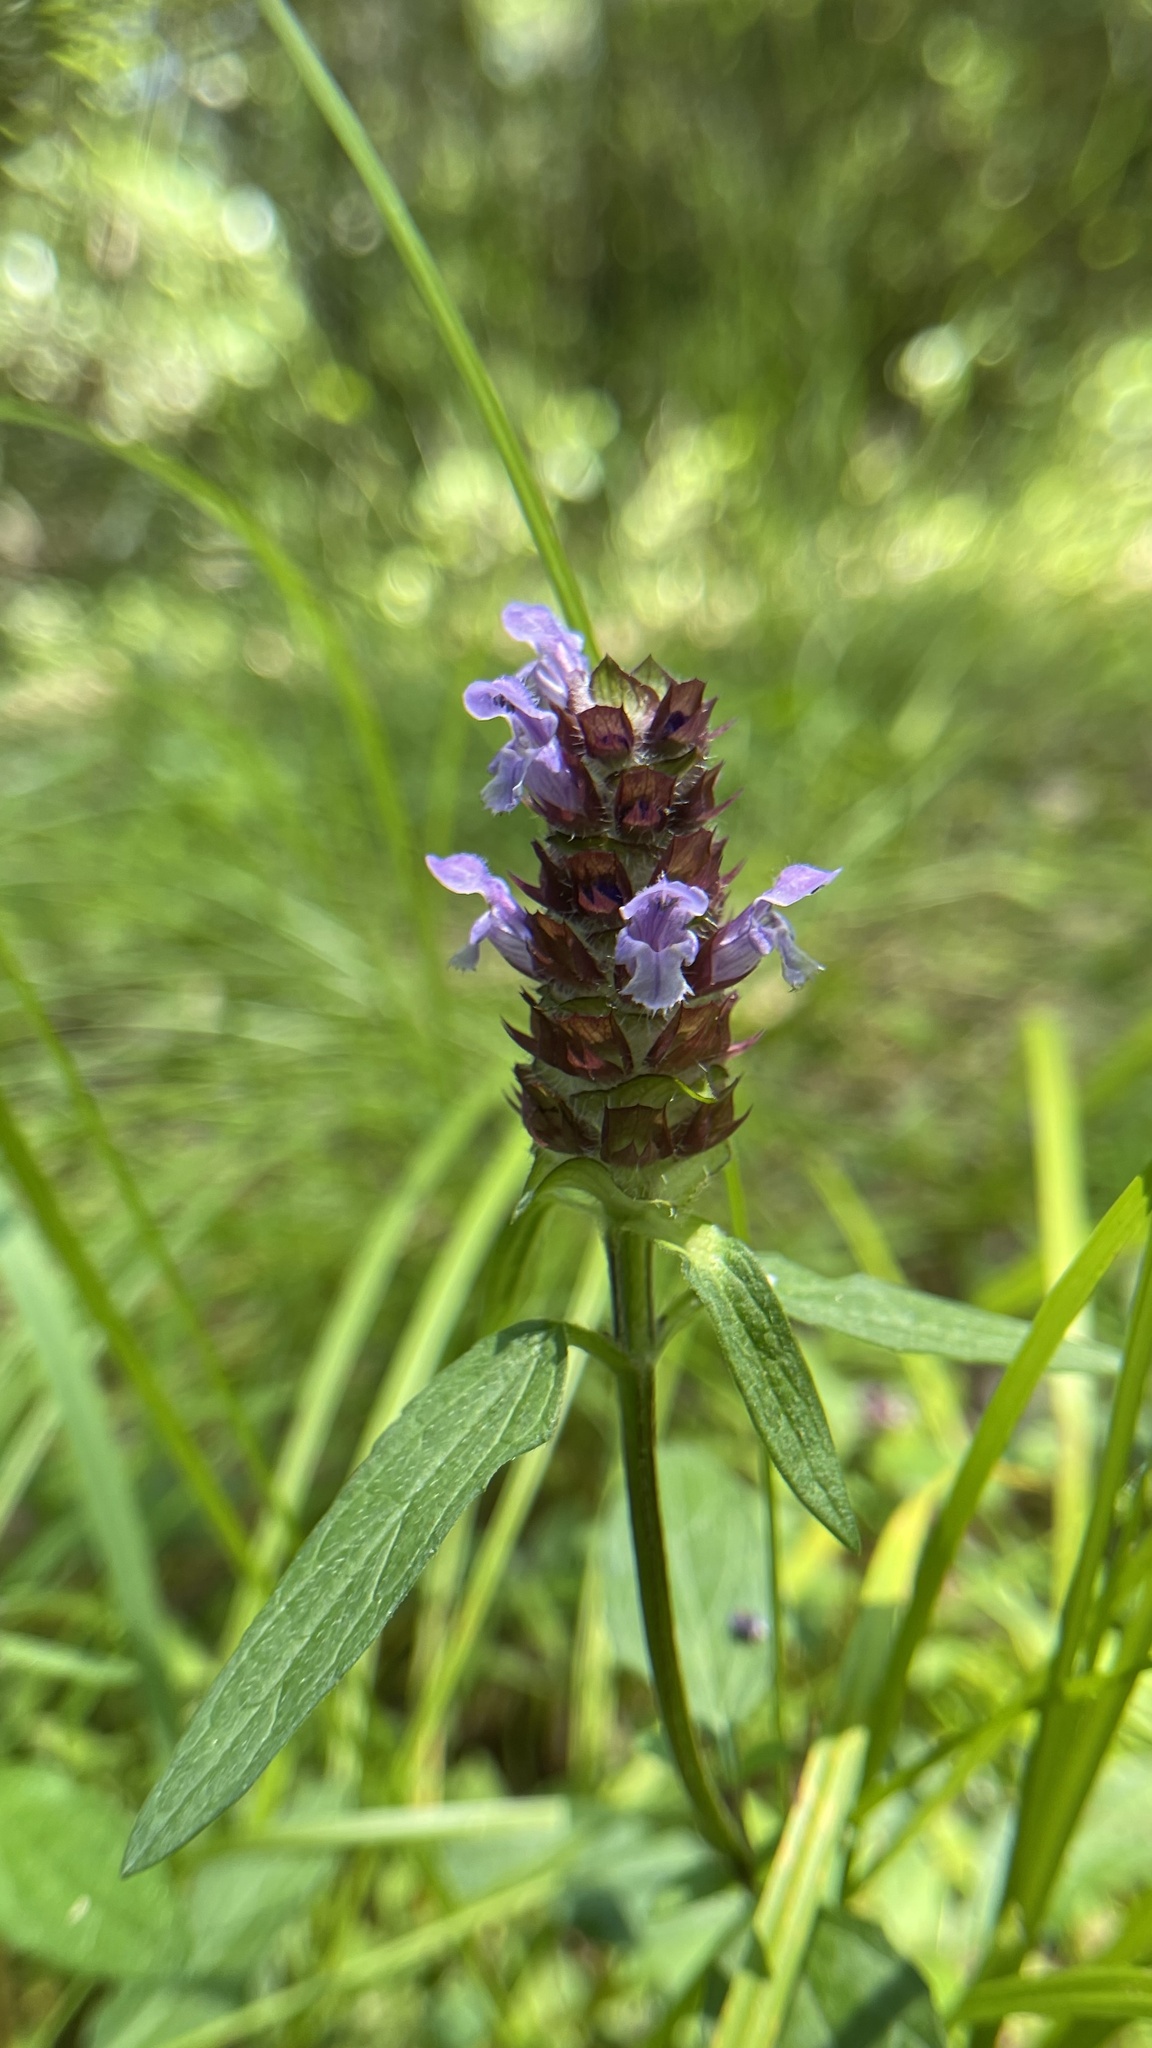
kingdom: Plantae
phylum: Tracheophyta
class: Magnoliopsida
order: Lamiales
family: Lamiaceae
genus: Prunella
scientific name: Prunella vulgaris
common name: Heal-all
